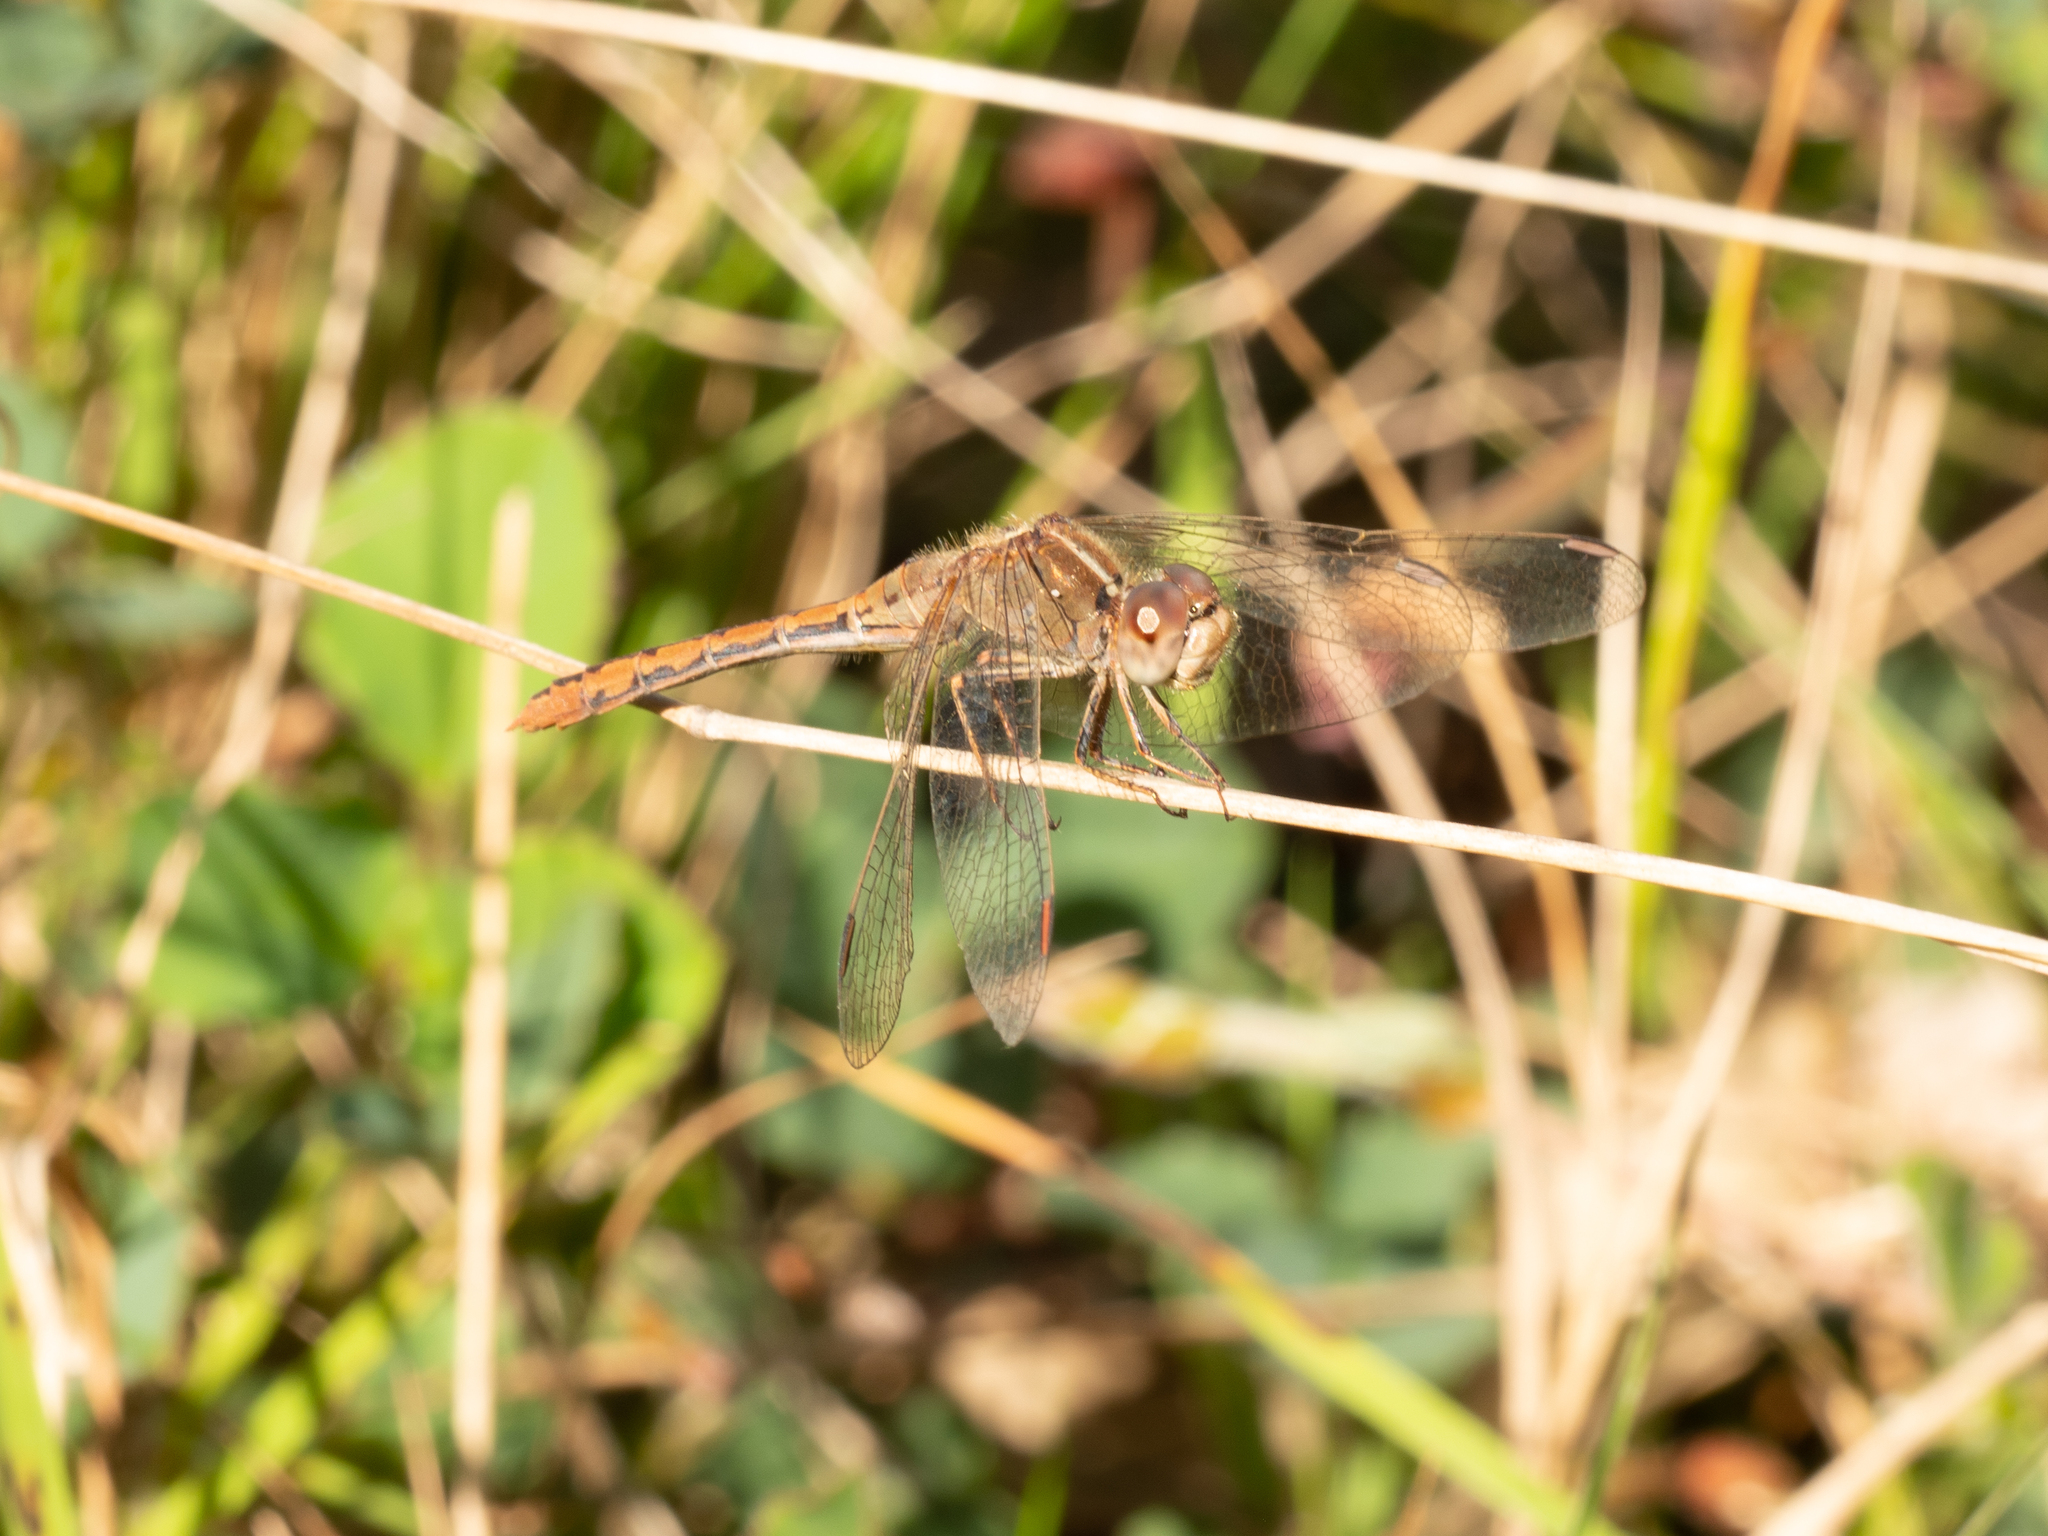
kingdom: Animalia
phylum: Arthropoda
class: Insecta
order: Odonata
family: Libellulidae
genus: Diplacodes
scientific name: Diplacodes bipunctata
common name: Red percher dragonfly
